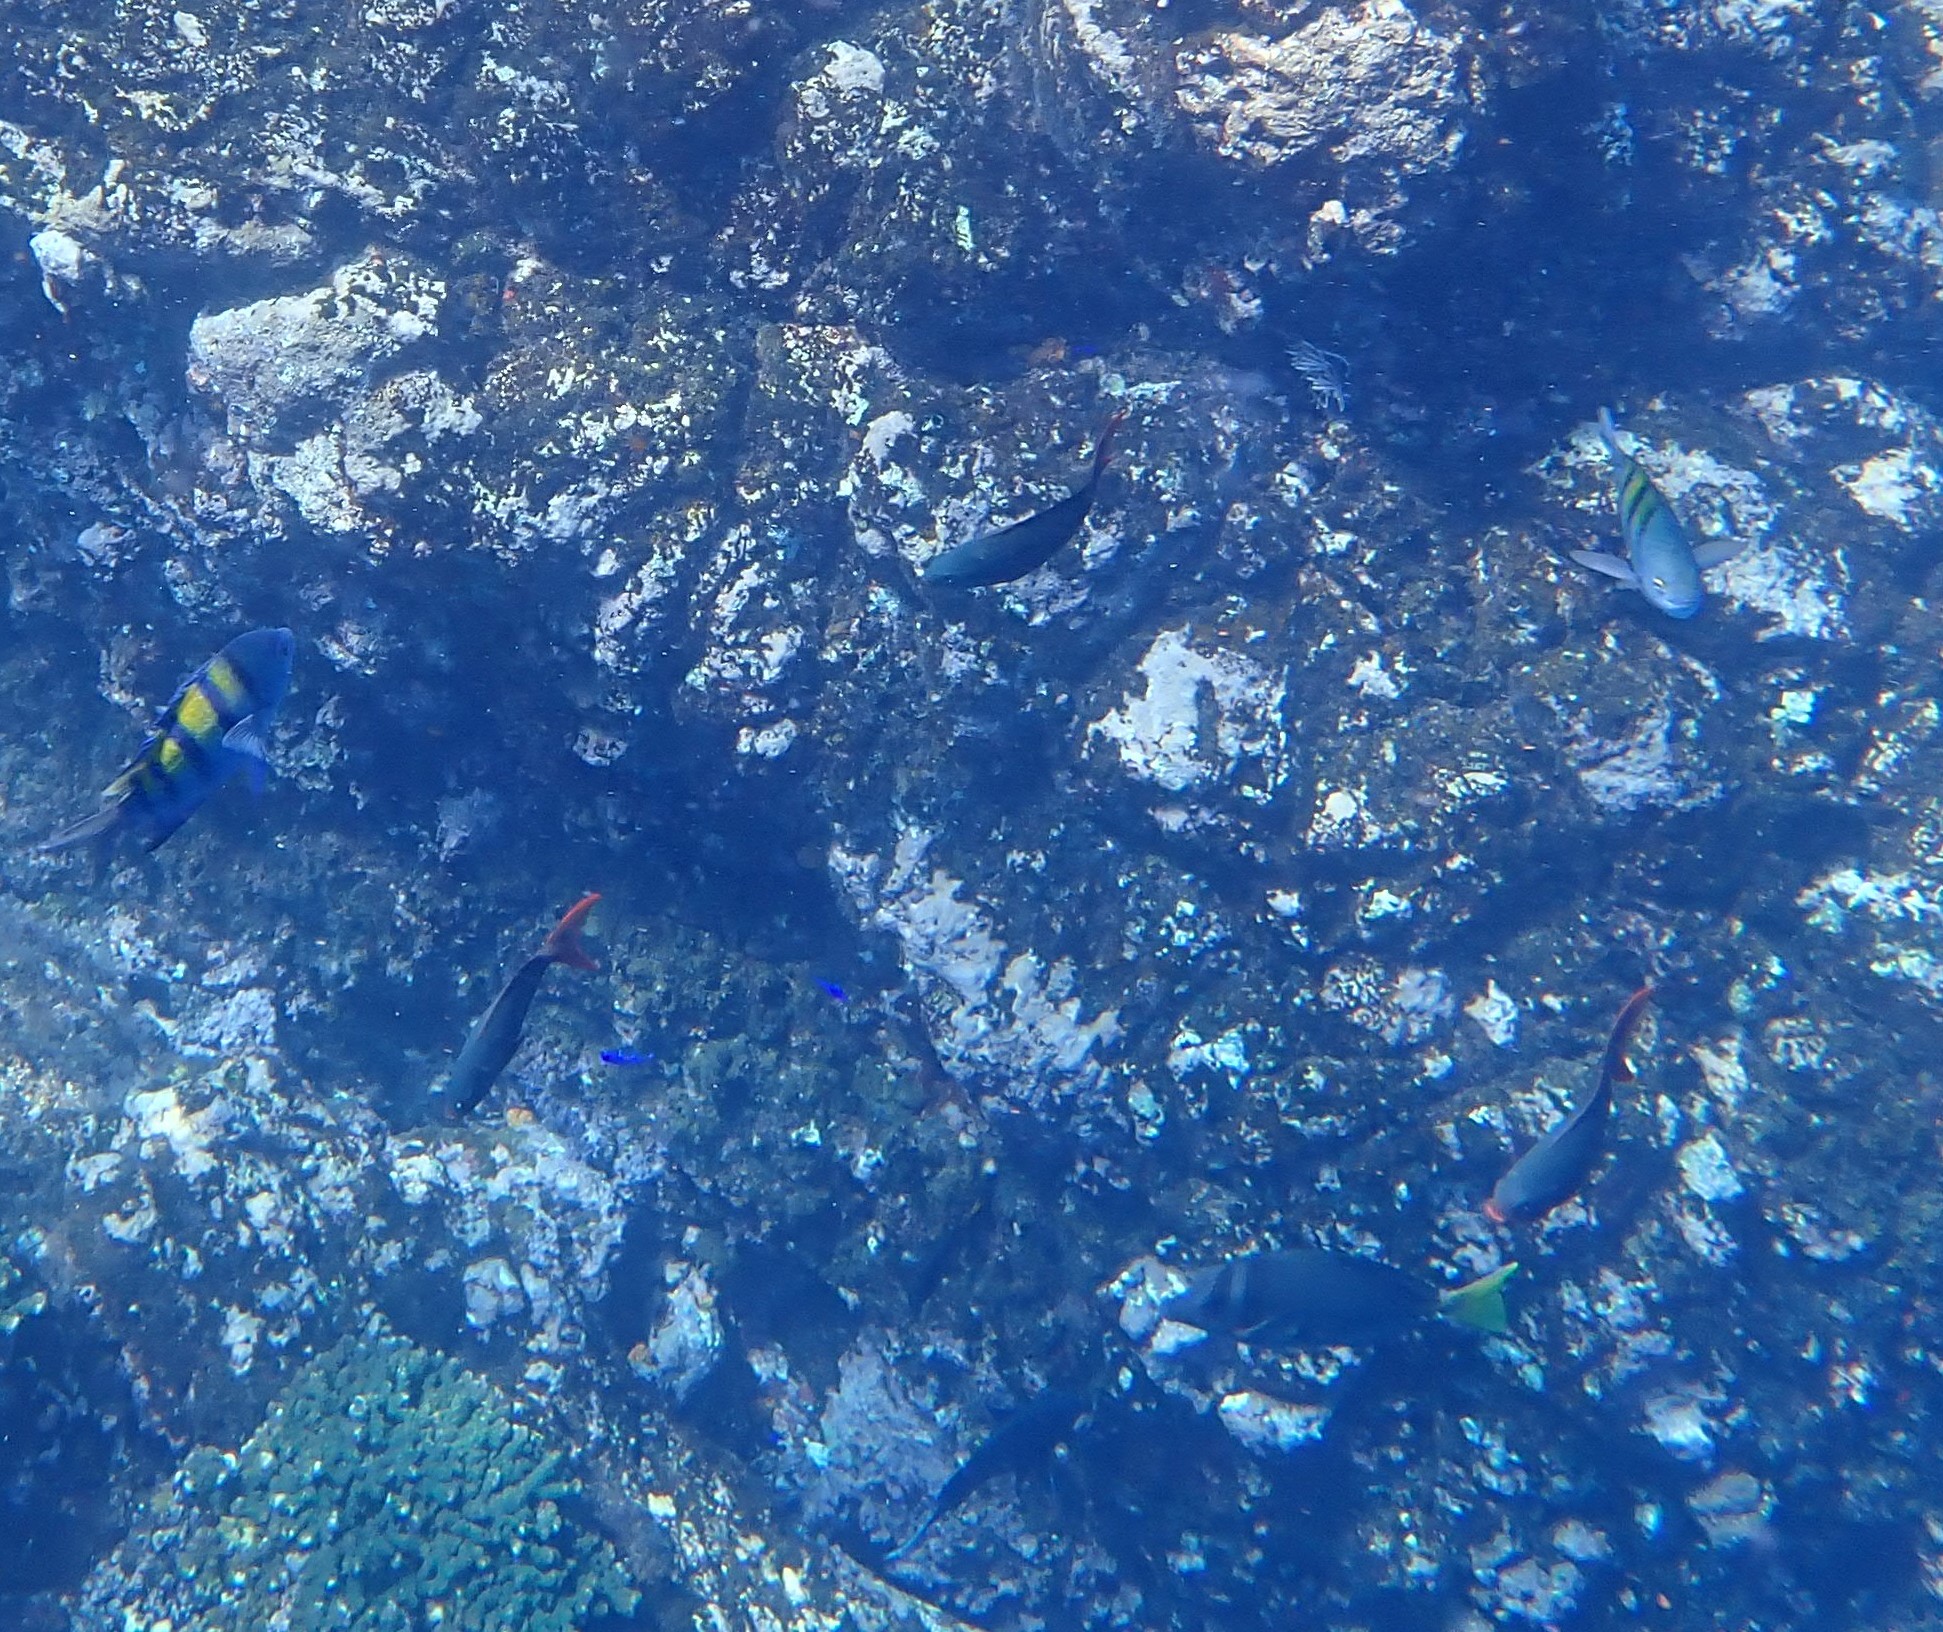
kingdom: Animalia
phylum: Chordata
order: Perciformes
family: Serranidae
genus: Paranthias
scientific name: Paranthias colonus
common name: Pacific creole-fish
